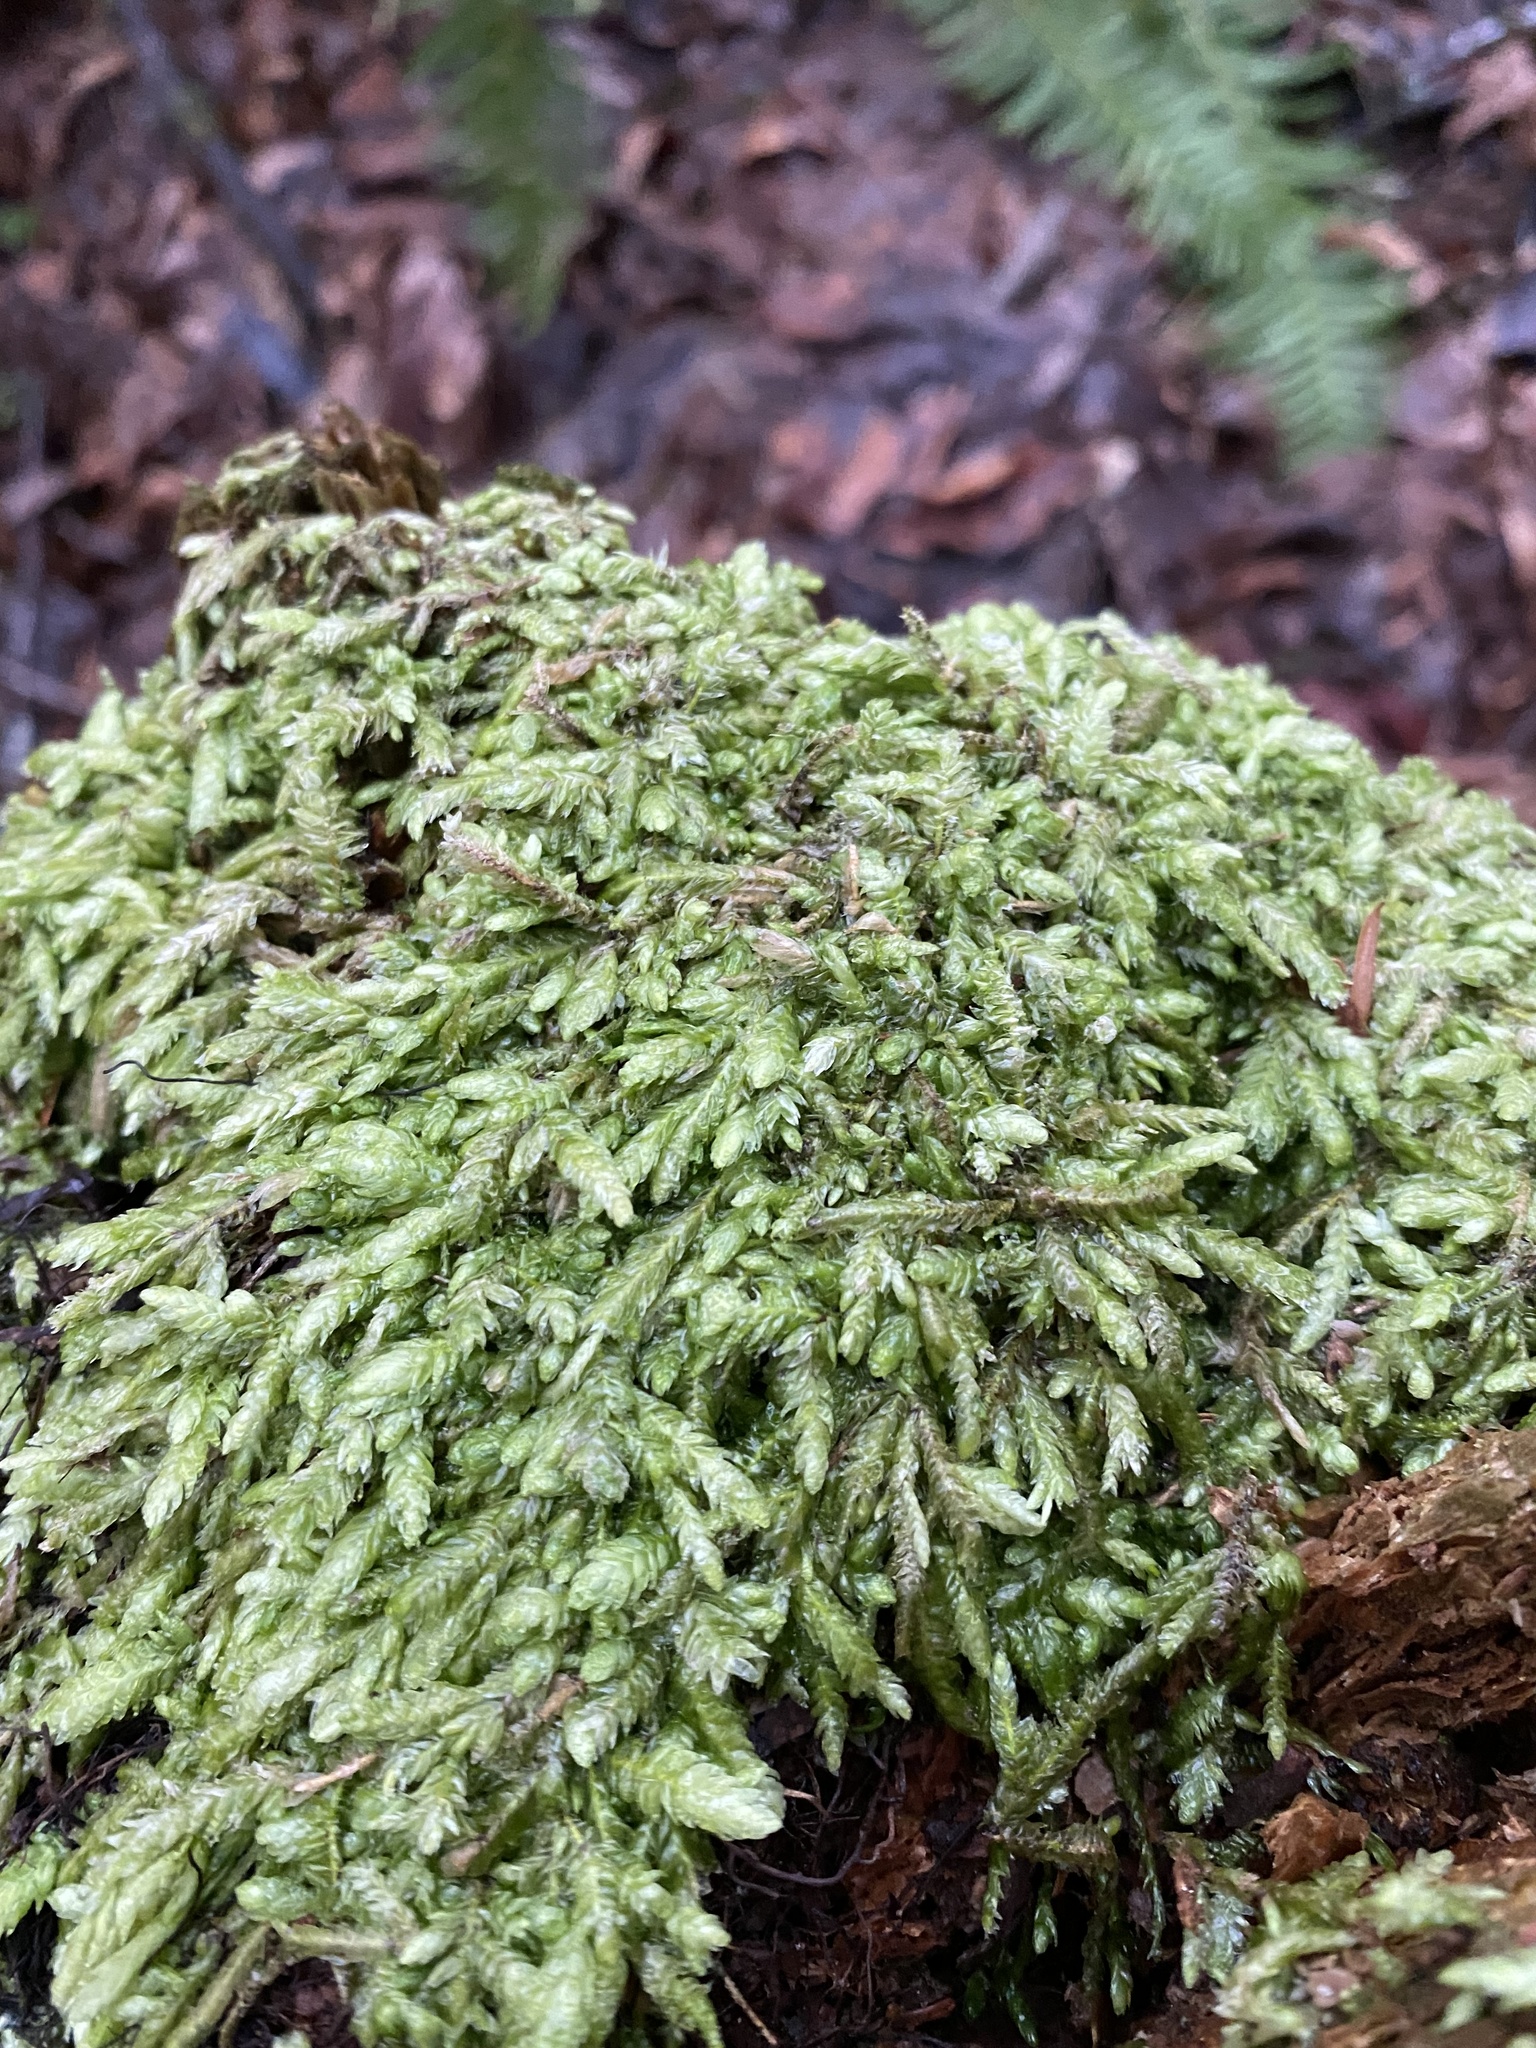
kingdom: Plantae
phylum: Bryophyta
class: Bryopsida
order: Hypnales
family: Plagiotheciaceae
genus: Plagiothecium
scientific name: Plagiothecium undulatum
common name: Waved silk-moss
